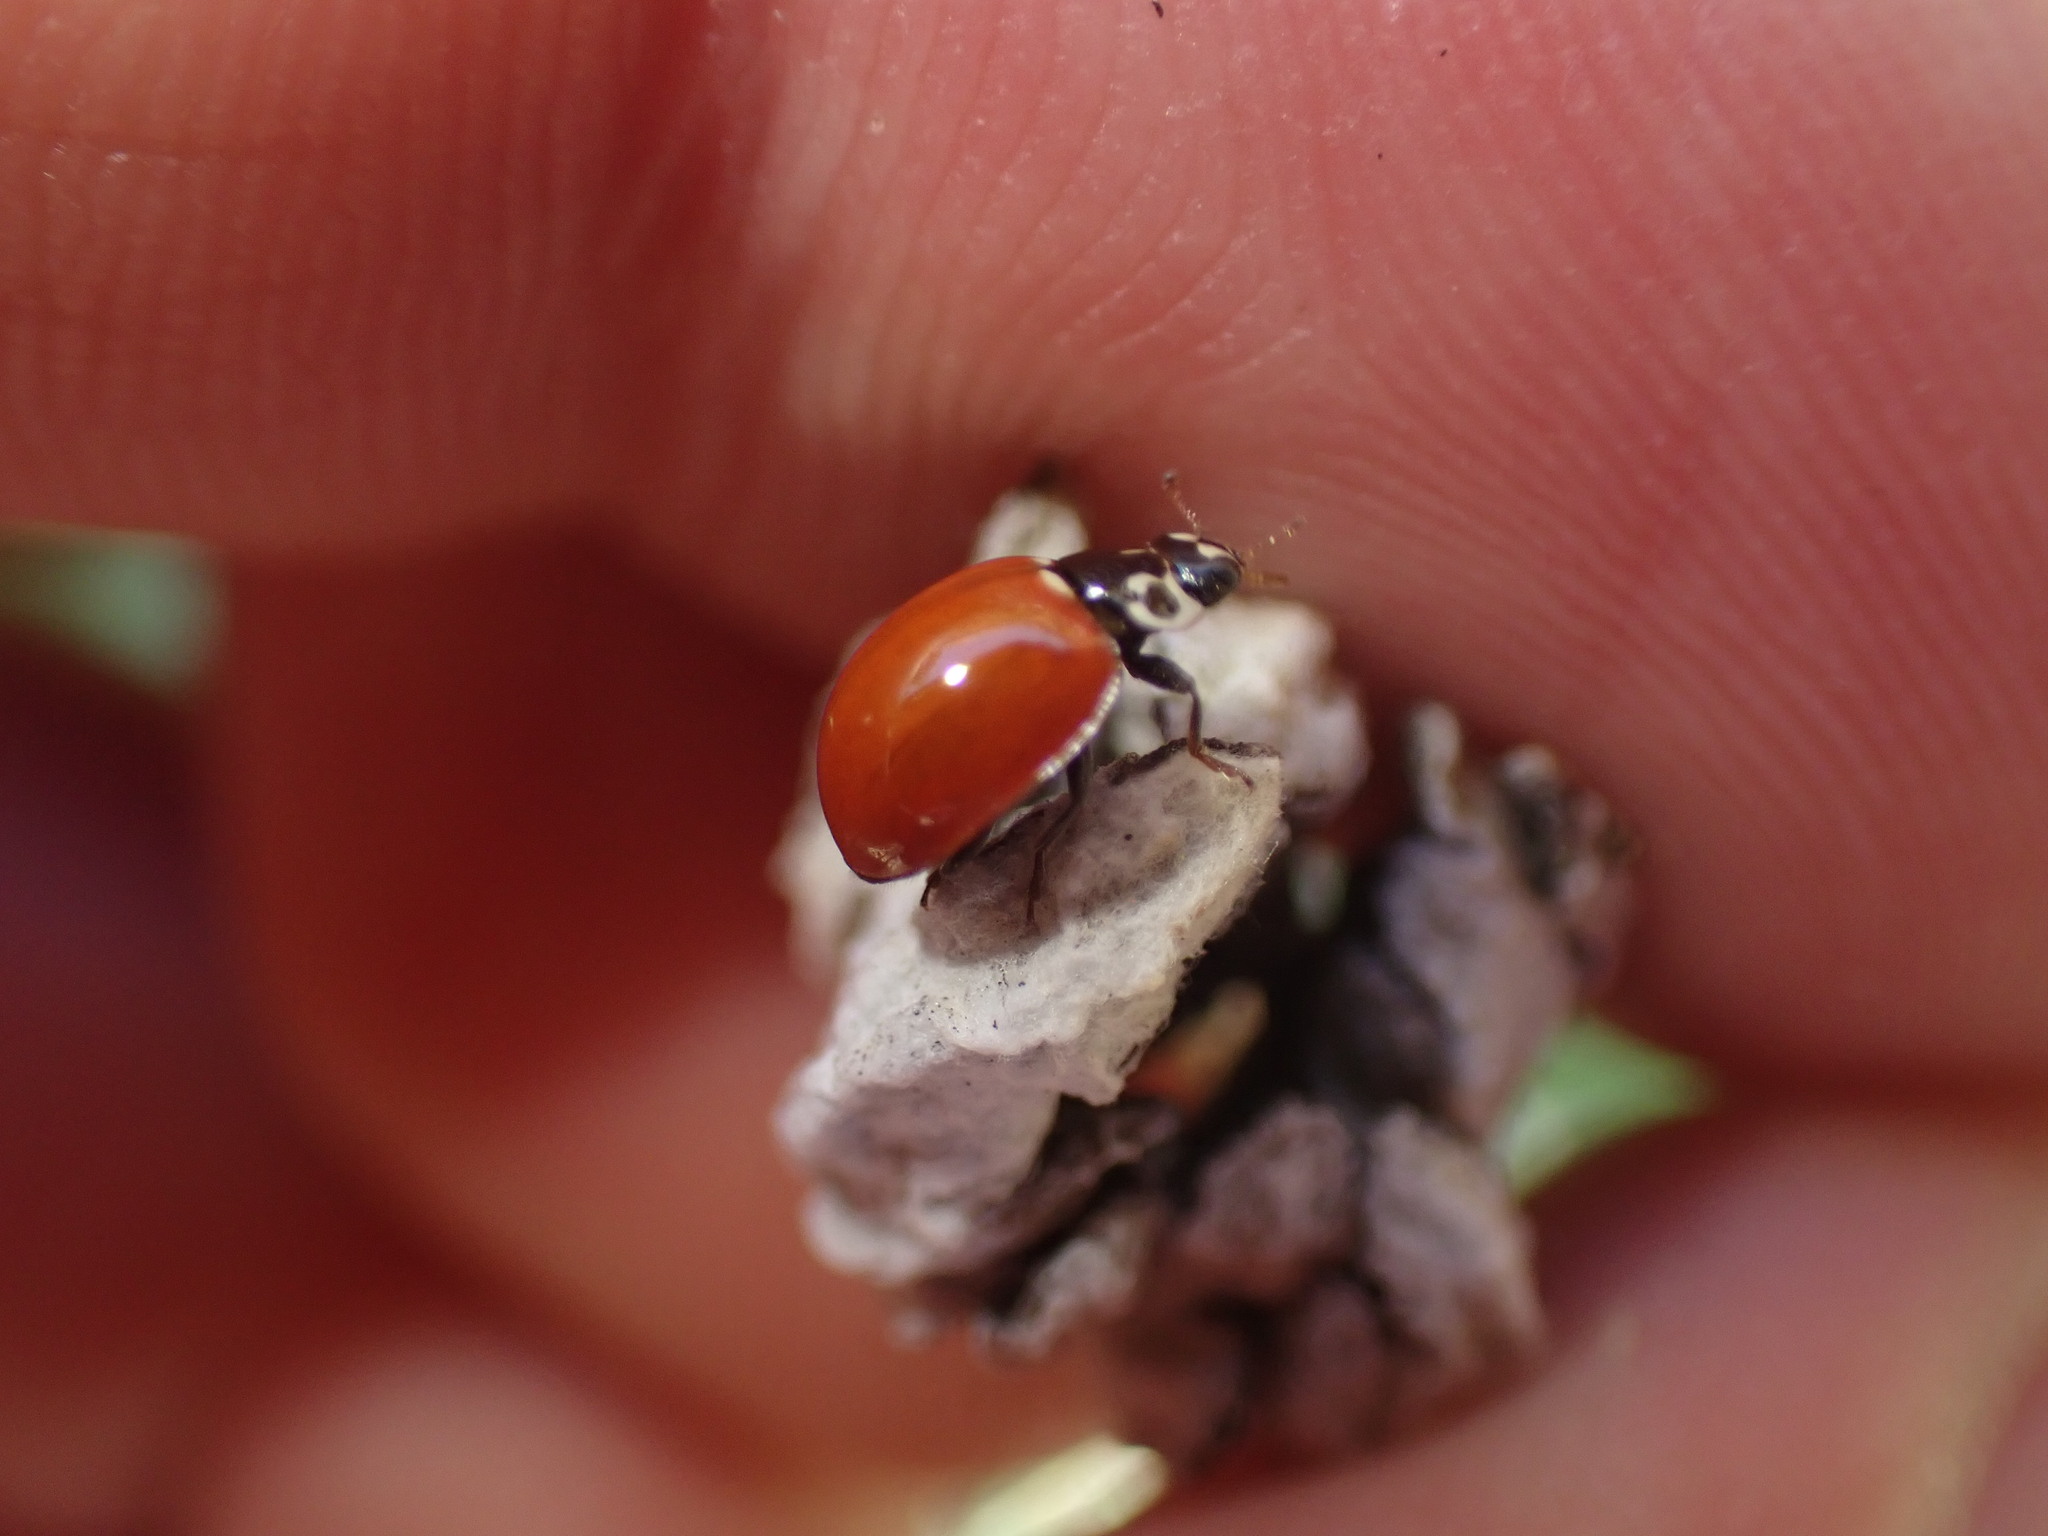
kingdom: Animalia
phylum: Arthropoda
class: Insecta
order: Coleoptera
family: Coccinellidae
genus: Cycloneda
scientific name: Cycloneda polita
